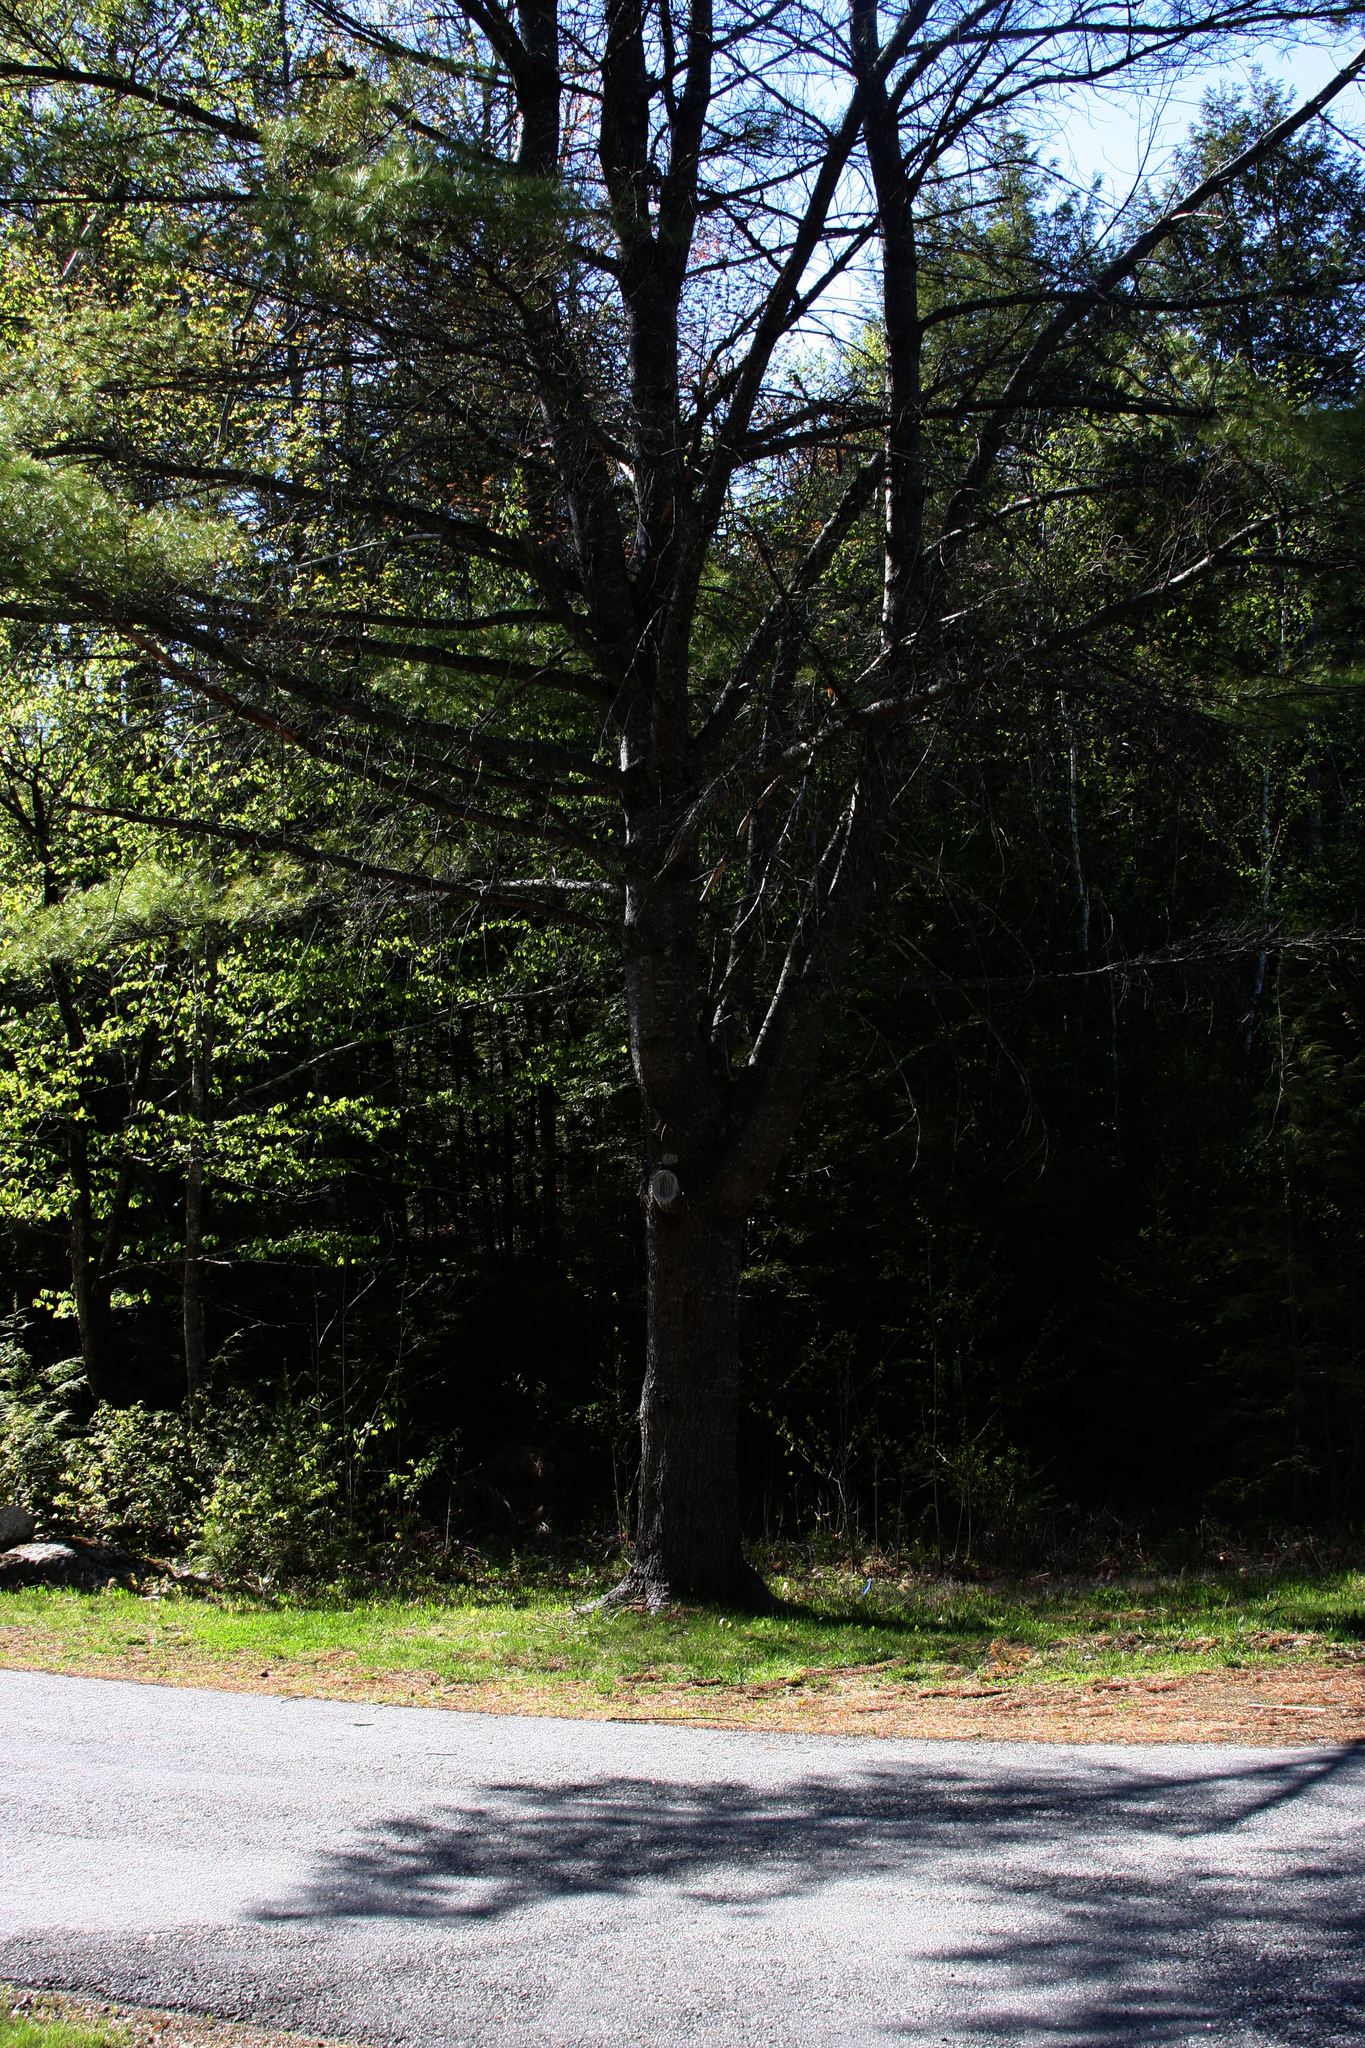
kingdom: Plantae
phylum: Tracheophyta
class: Pinopsida
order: Pinales
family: Pinaceae
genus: Pinus
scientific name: Pinus strobus
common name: Weymouth pine
